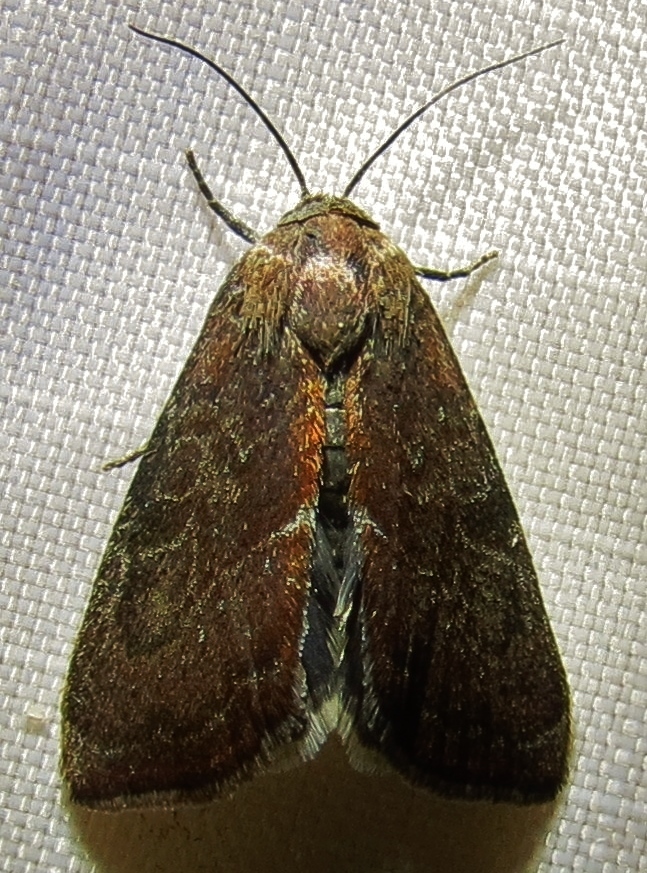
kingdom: Animalia
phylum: Arthropoda
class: Insecta
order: Lepidoptera
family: Noctuidae
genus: Galgula
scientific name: Galgula partita
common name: Wedgeling
